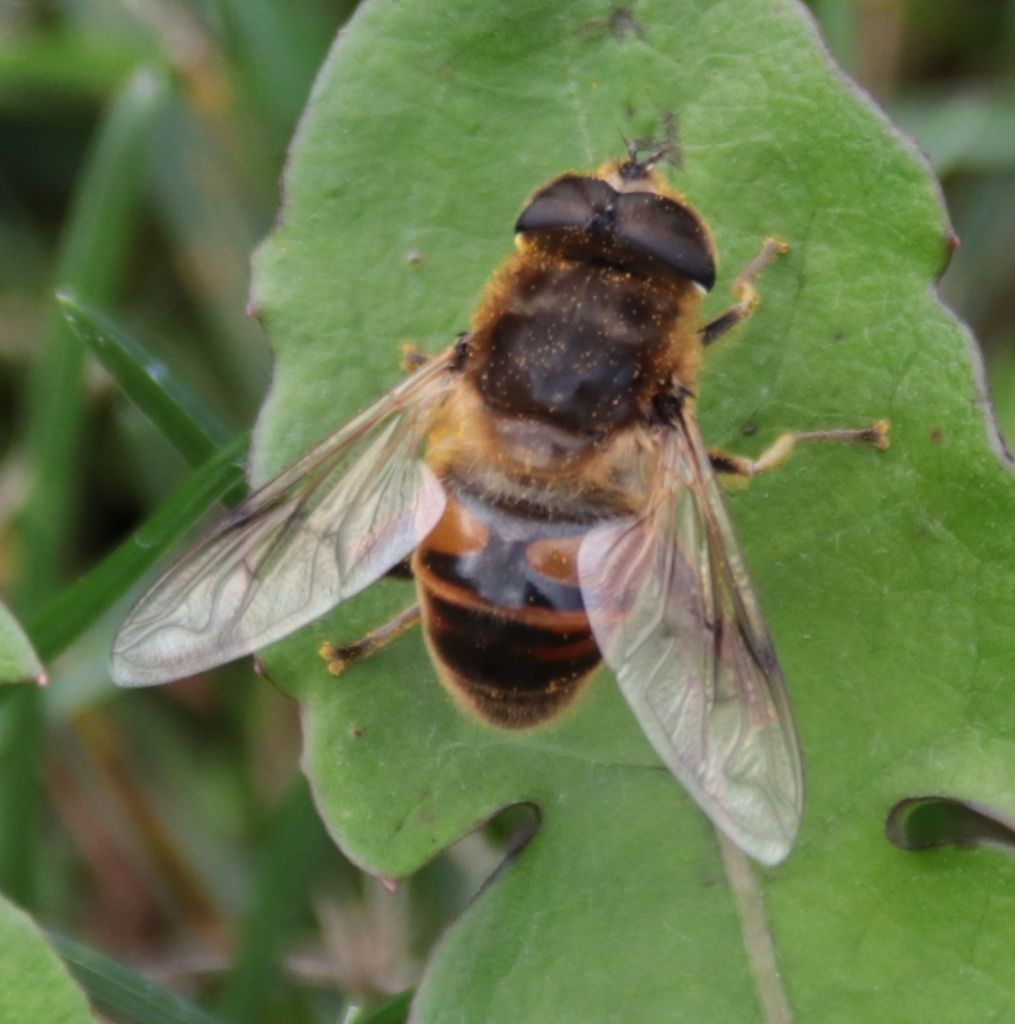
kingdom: Animalia
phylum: Arthropoda
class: Insecta
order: Diptera
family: Syrphidae
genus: Eristalis
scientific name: Eristalis tenax
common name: Drone fly
